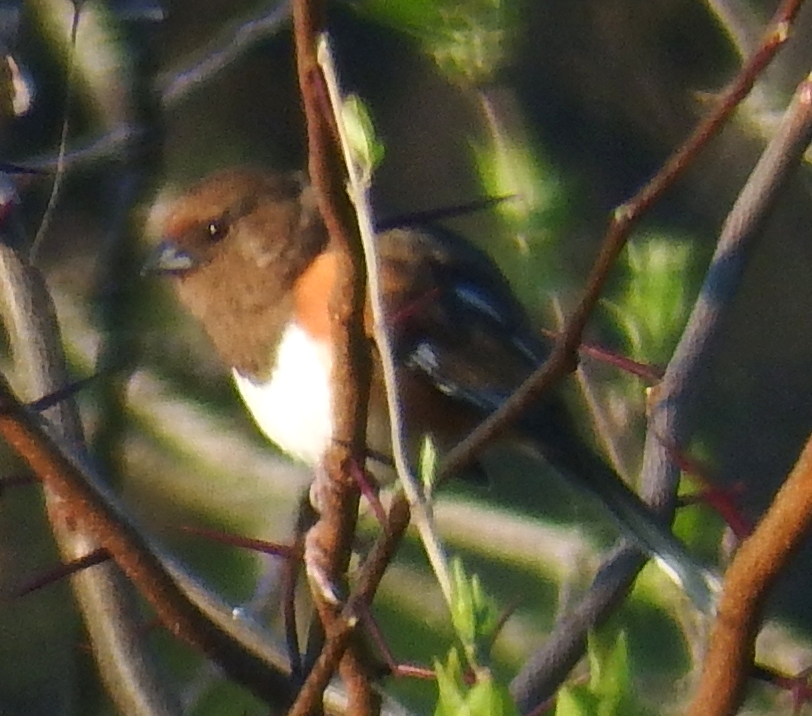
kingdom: Animalia
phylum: Chordata
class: Aves
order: Passeriformes
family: Passerellidae
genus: Pipilo
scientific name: Pipilo erythrophthalmus
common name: Eastern towhee
